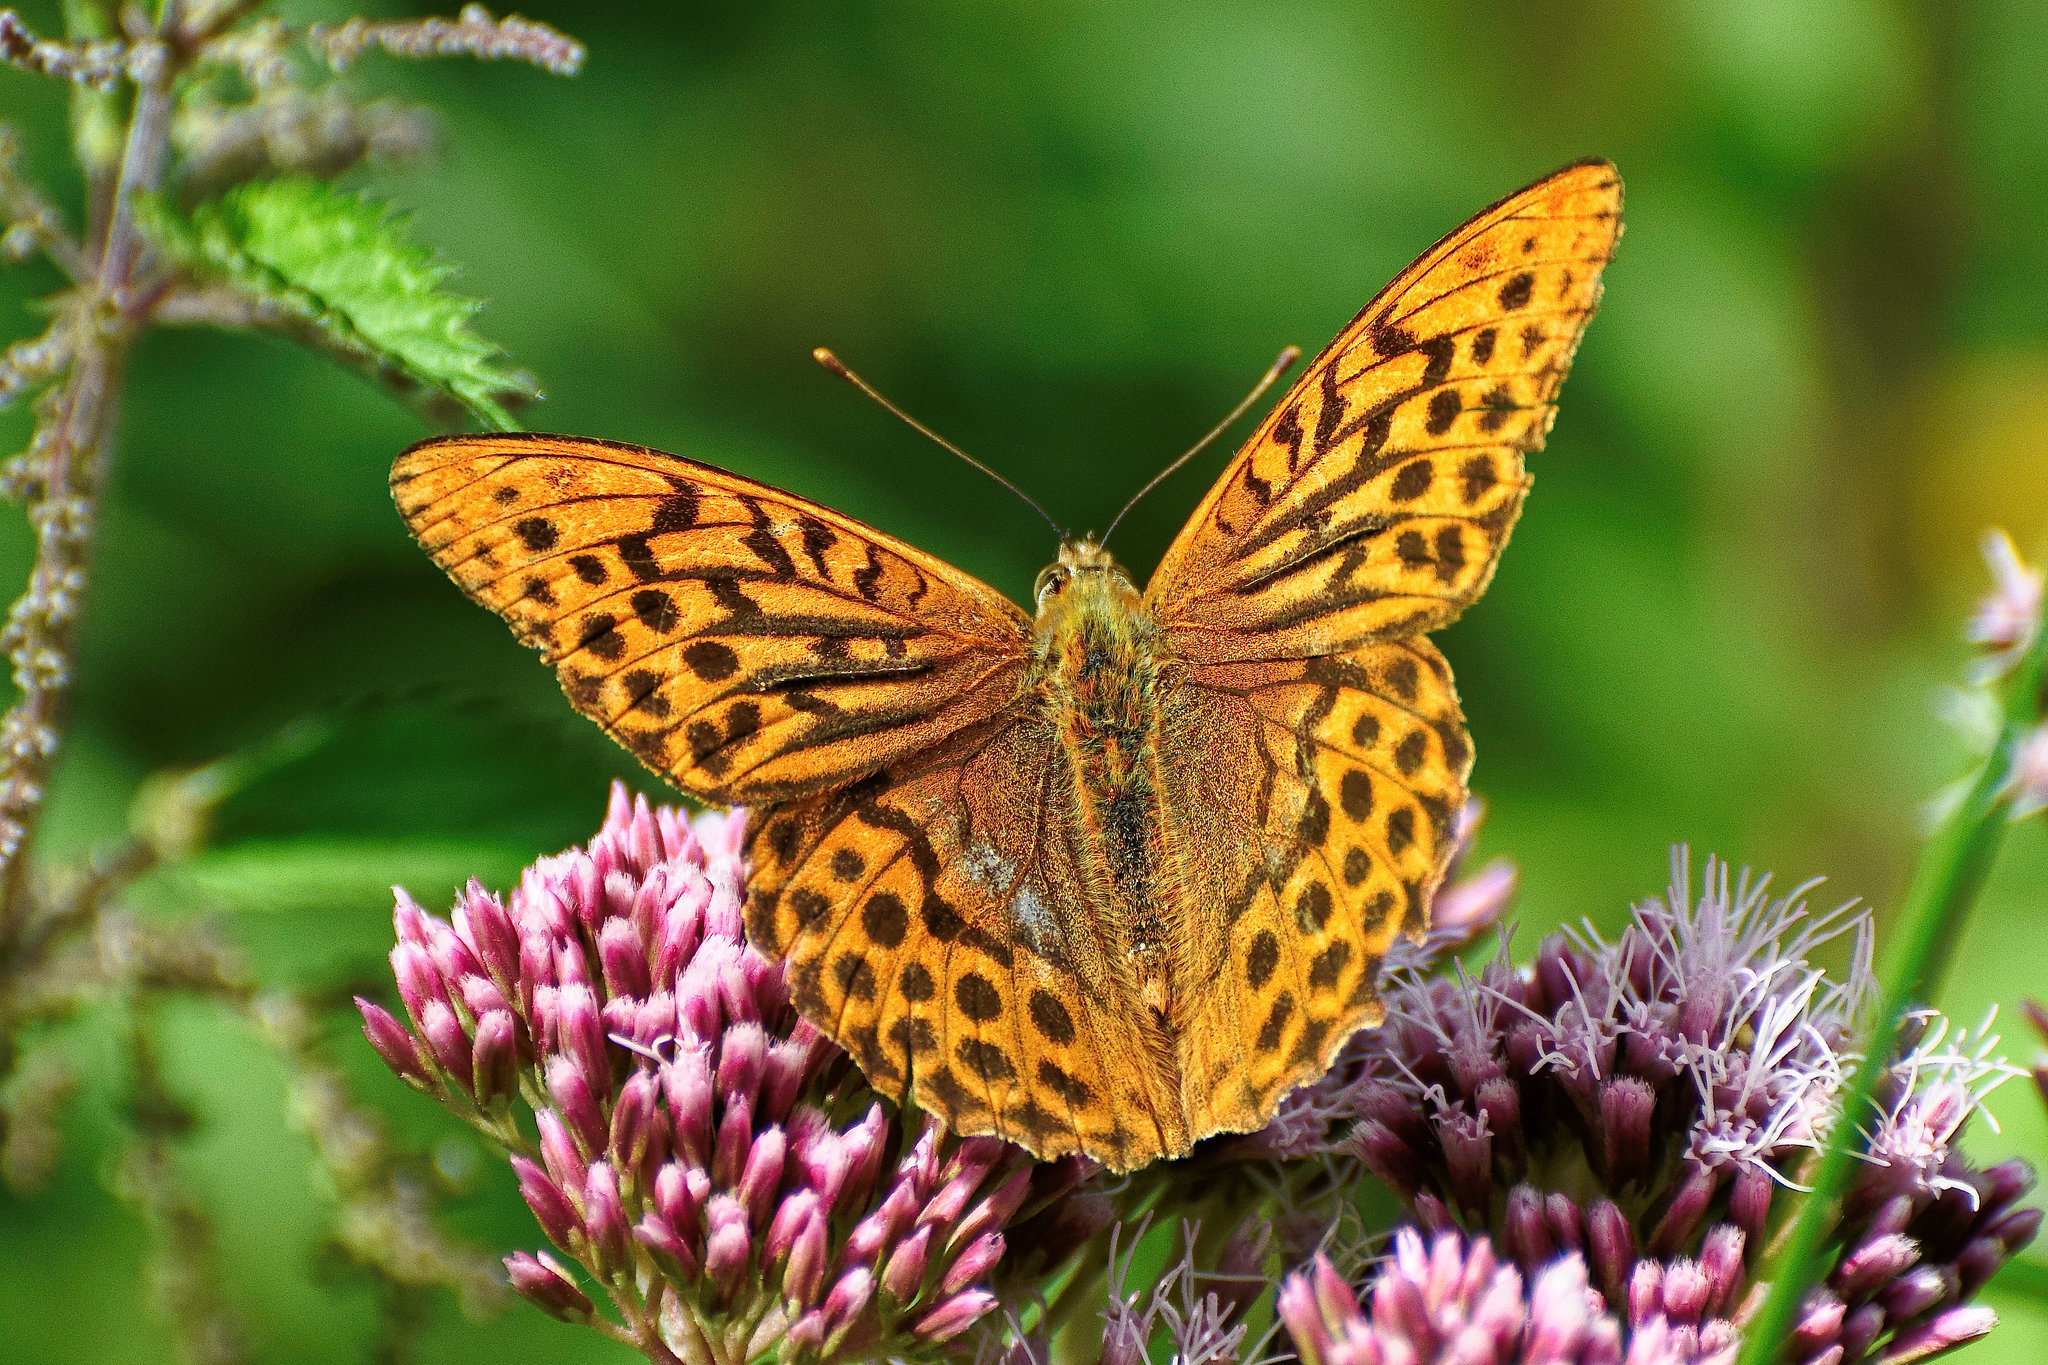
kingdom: Animalia
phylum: Arthropoda
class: Insecta
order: Lepidoptera
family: Nymphalidae
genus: Argynnis
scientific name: Argynnis paphia
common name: Silver-washed fritillary
